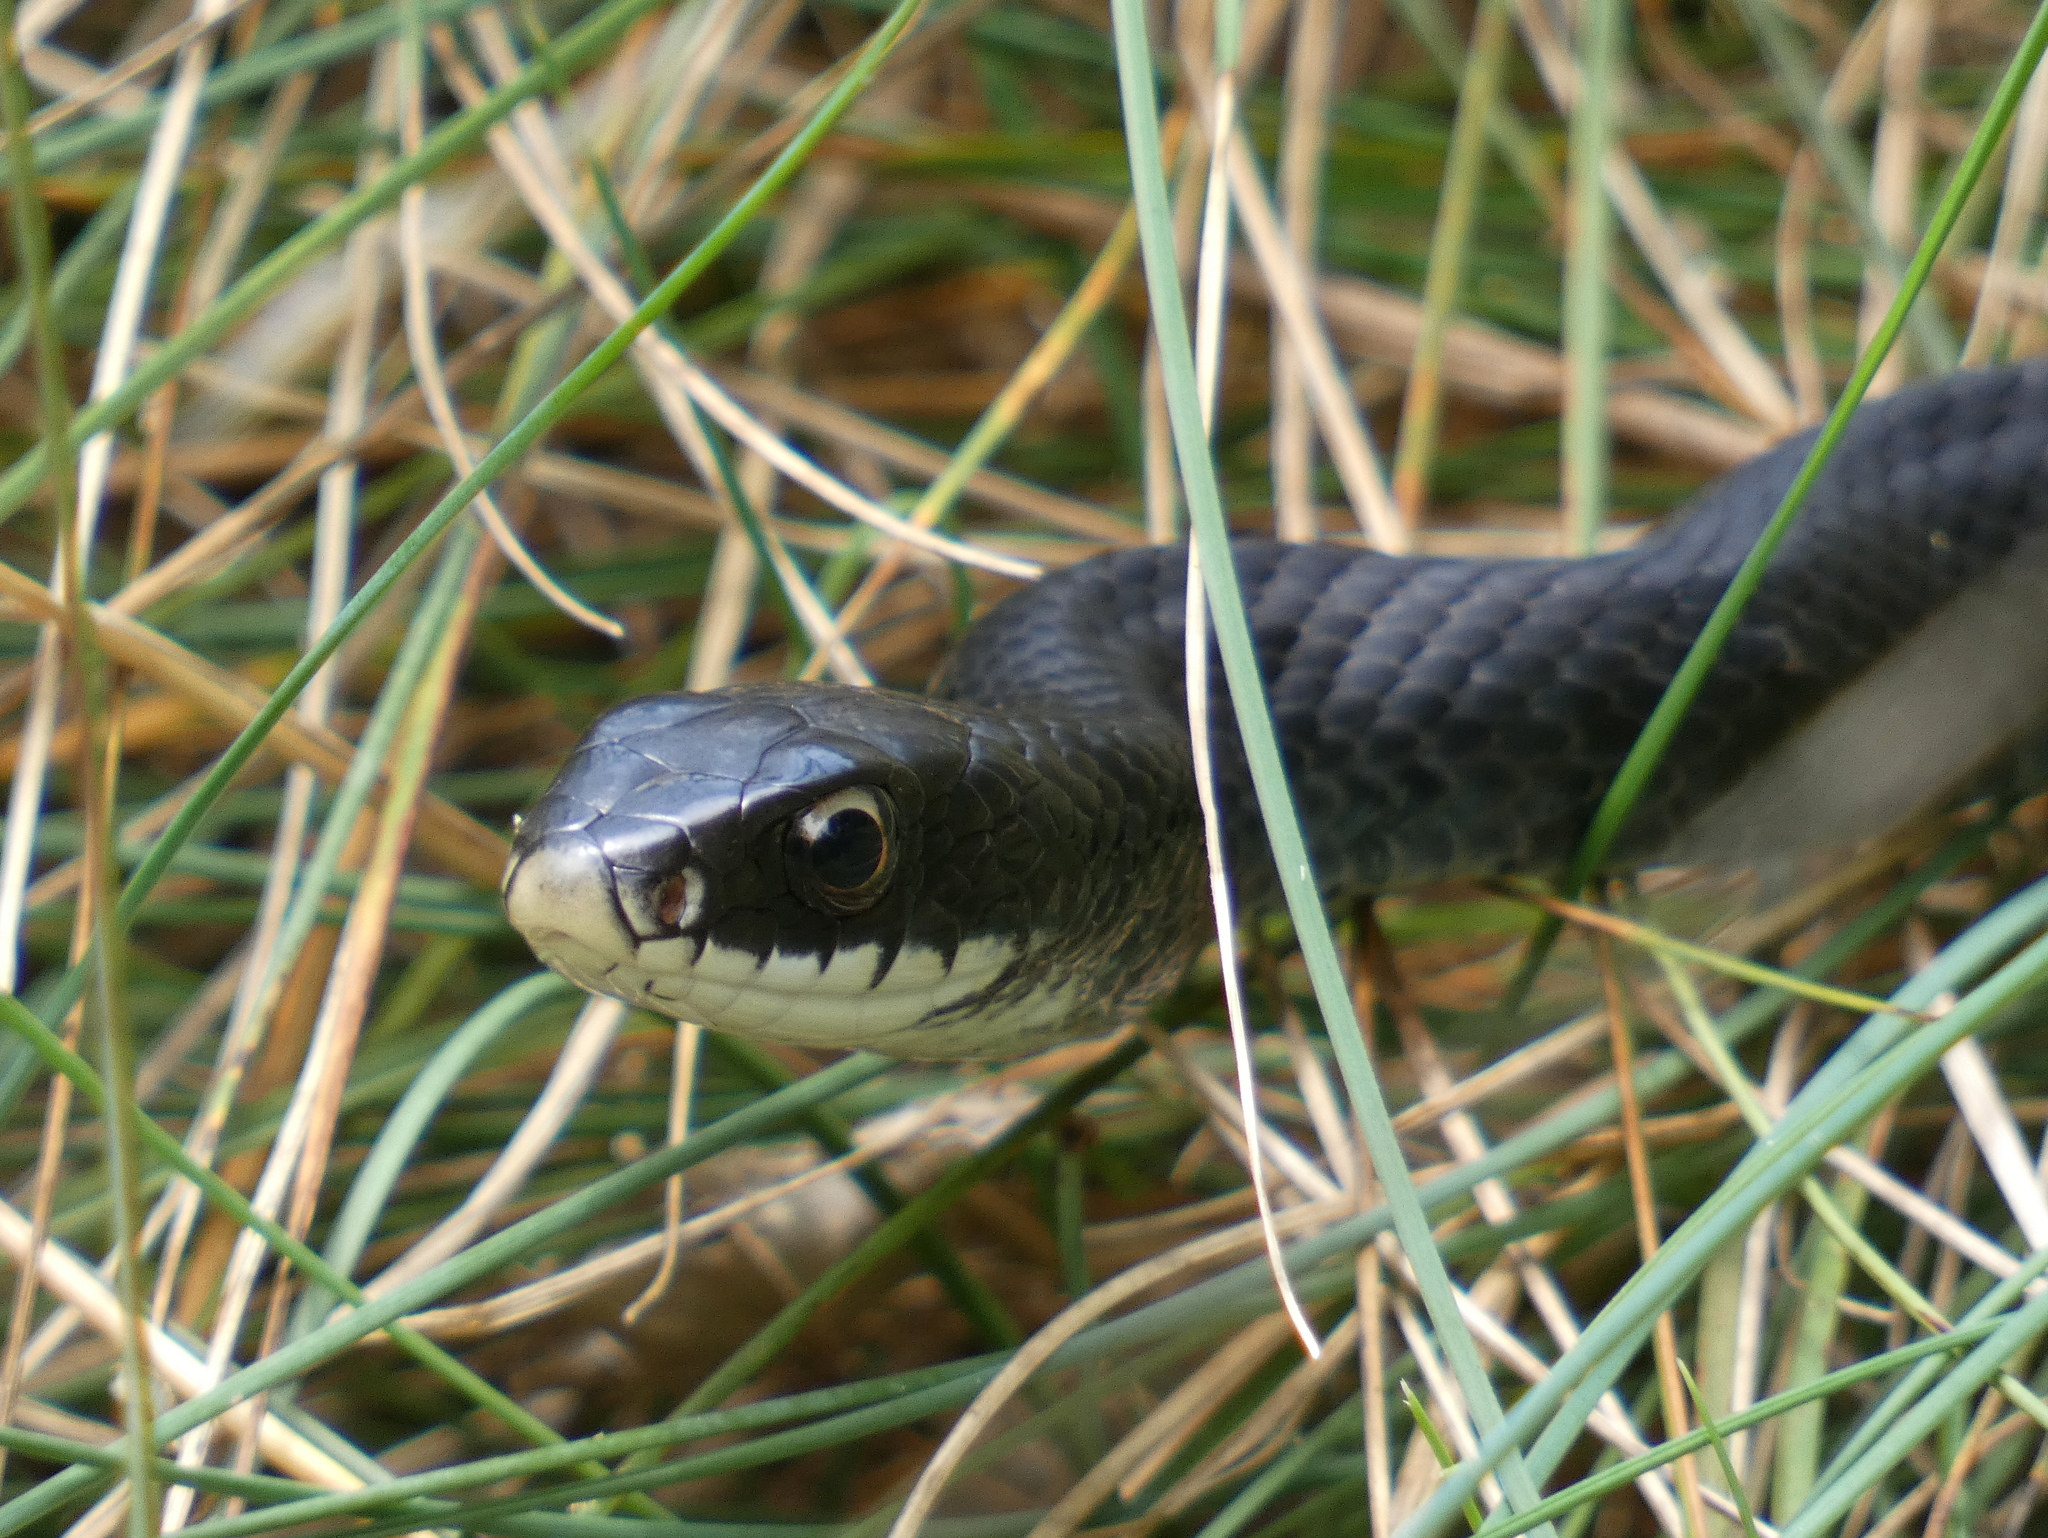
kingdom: Animalia
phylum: Chordata
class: Squamata
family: Colubridae
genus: Coluber
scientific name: Coluber constrictor
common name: Eastern racer
